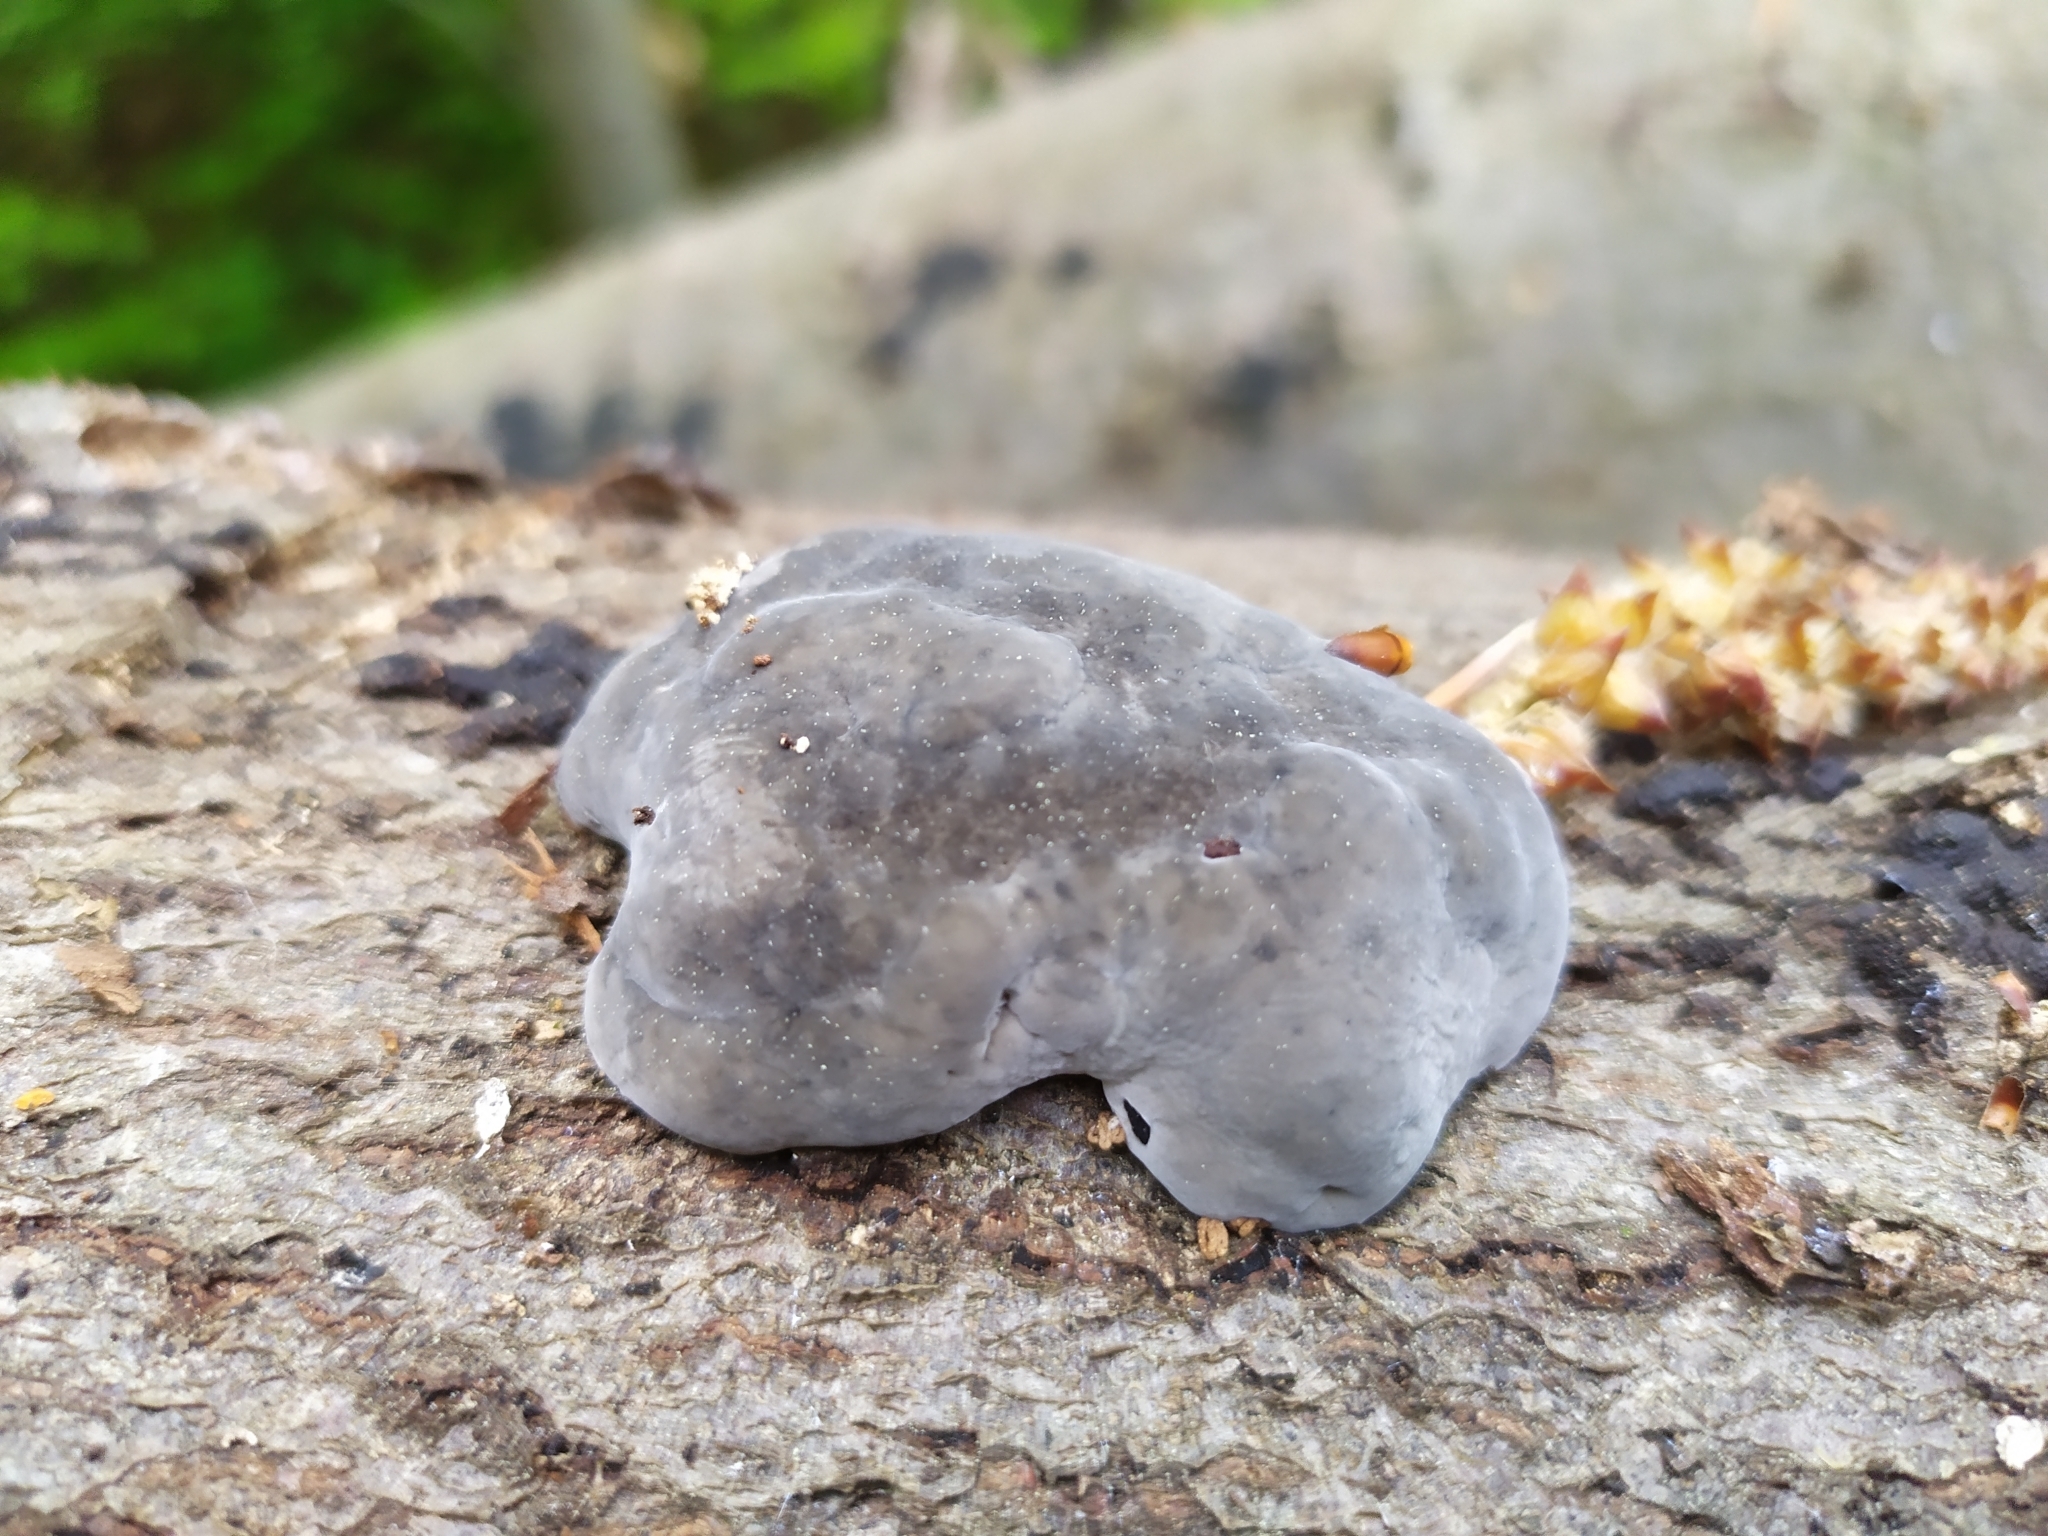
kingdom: Fungi
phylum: Basidiomycota
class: Agaricomycetes
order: Polyporales
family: Polyporaceae
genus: Fomes
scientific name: Fomes fomentarius
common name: Hoof fungus
